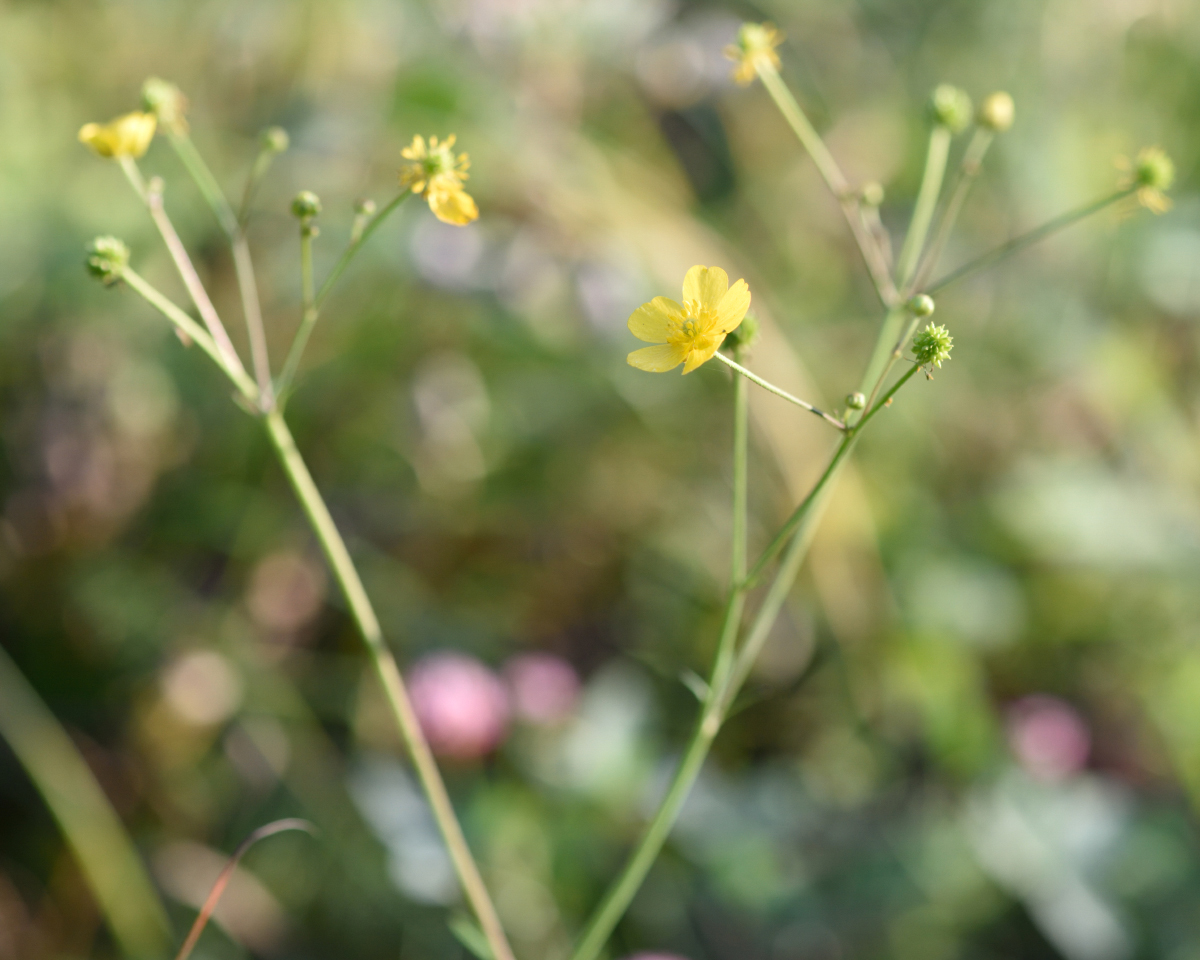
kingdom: Plantae
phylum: Tracheophyta
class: Magnoliopsida
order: Ranunculales
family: Ranunculaceae
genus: Ranunculus
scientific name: Ranunculus acris
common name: Meadow buttercup
